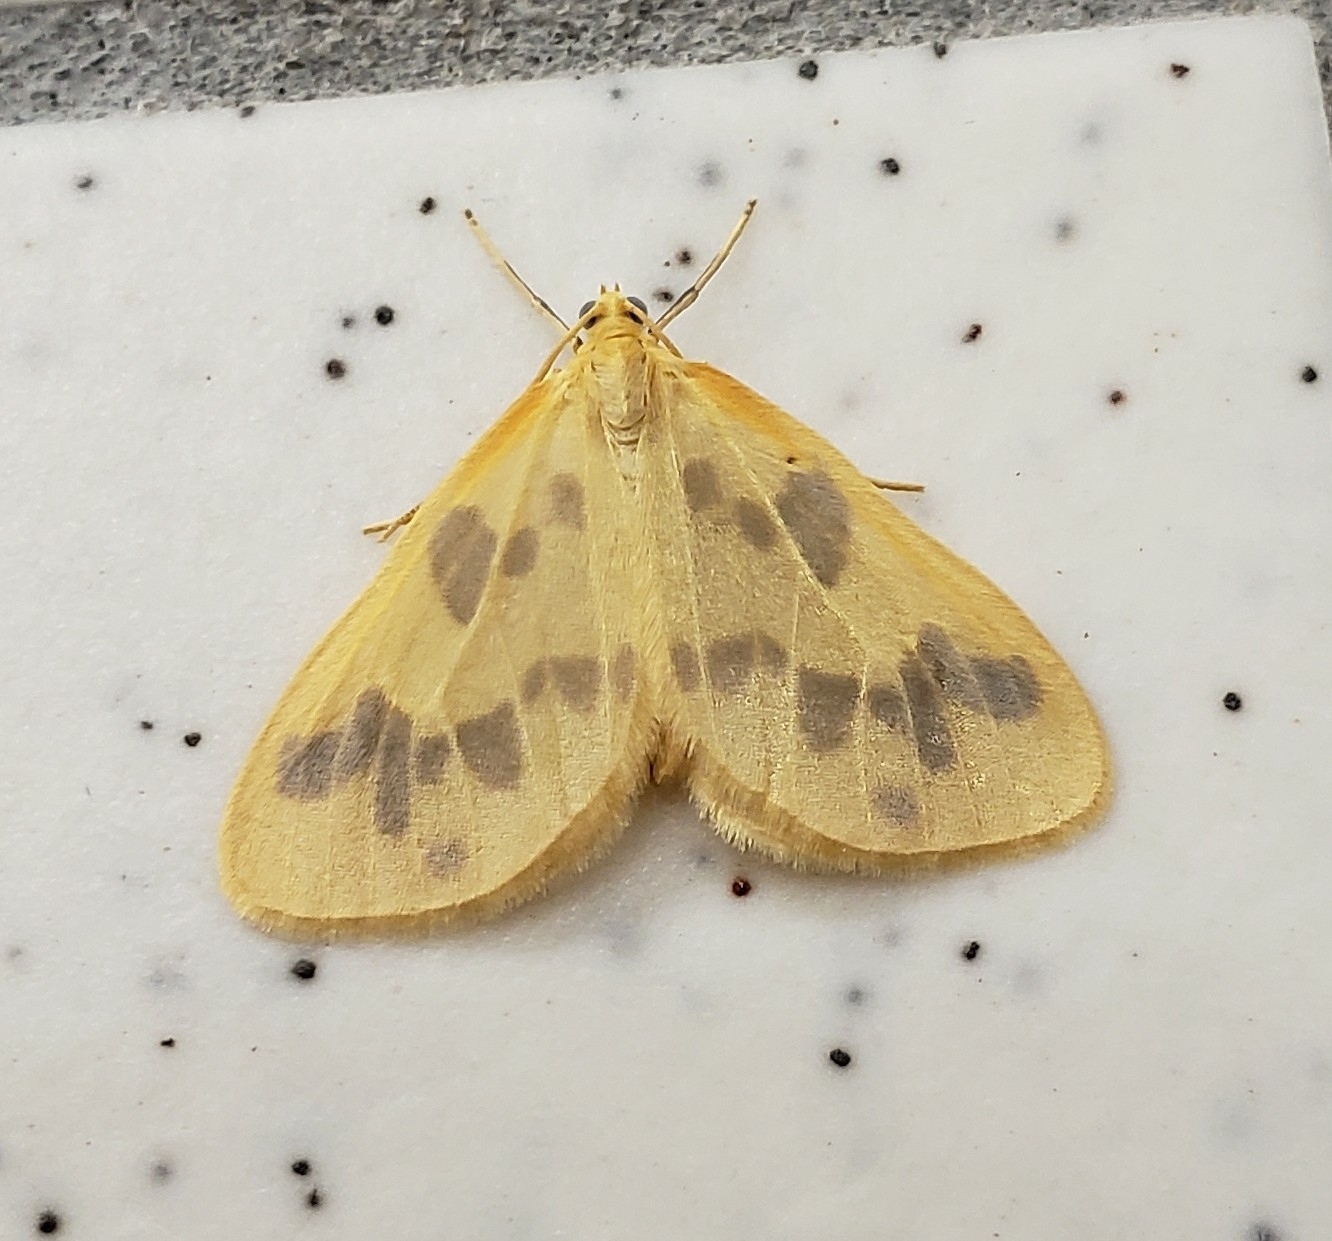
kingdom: Animalia
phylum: Arthropoda
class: Insecta
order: Lepidoptera
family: Geometridae
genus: Eubaphe
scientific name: Eubaphe mendica
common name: Beggar
